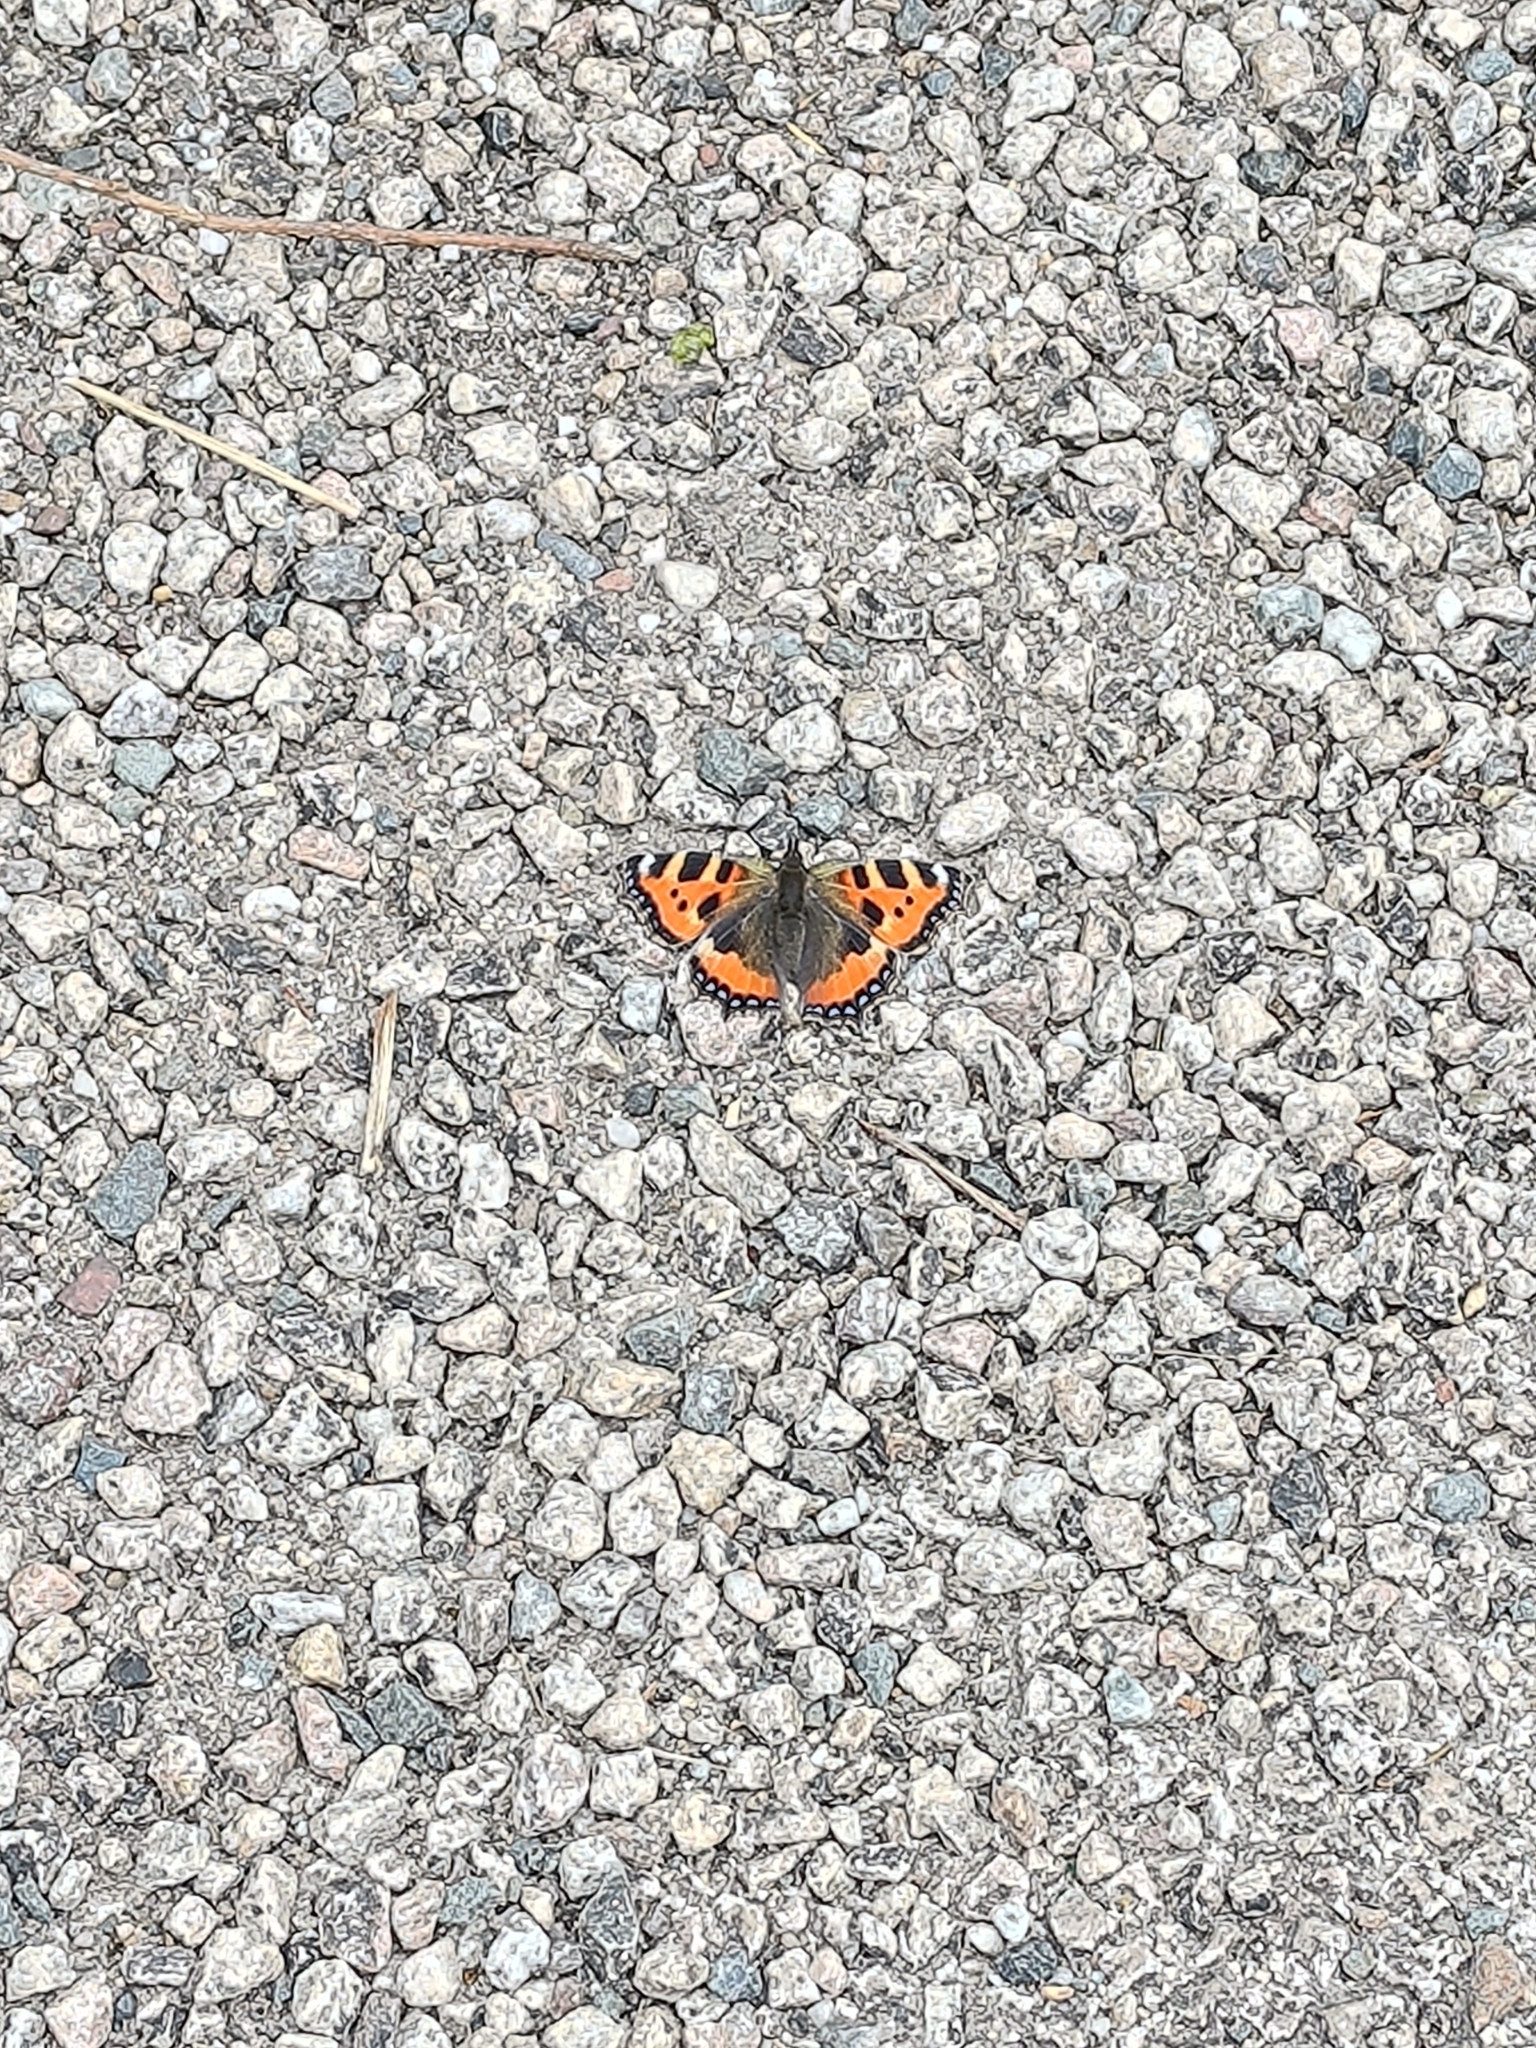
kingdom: Animalia
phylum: Arthropoda
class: Insecta
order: Lepidoptera
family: Nymphalidae
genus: Aglais
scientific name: Aglais urticae
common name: Small tortoiseshell
